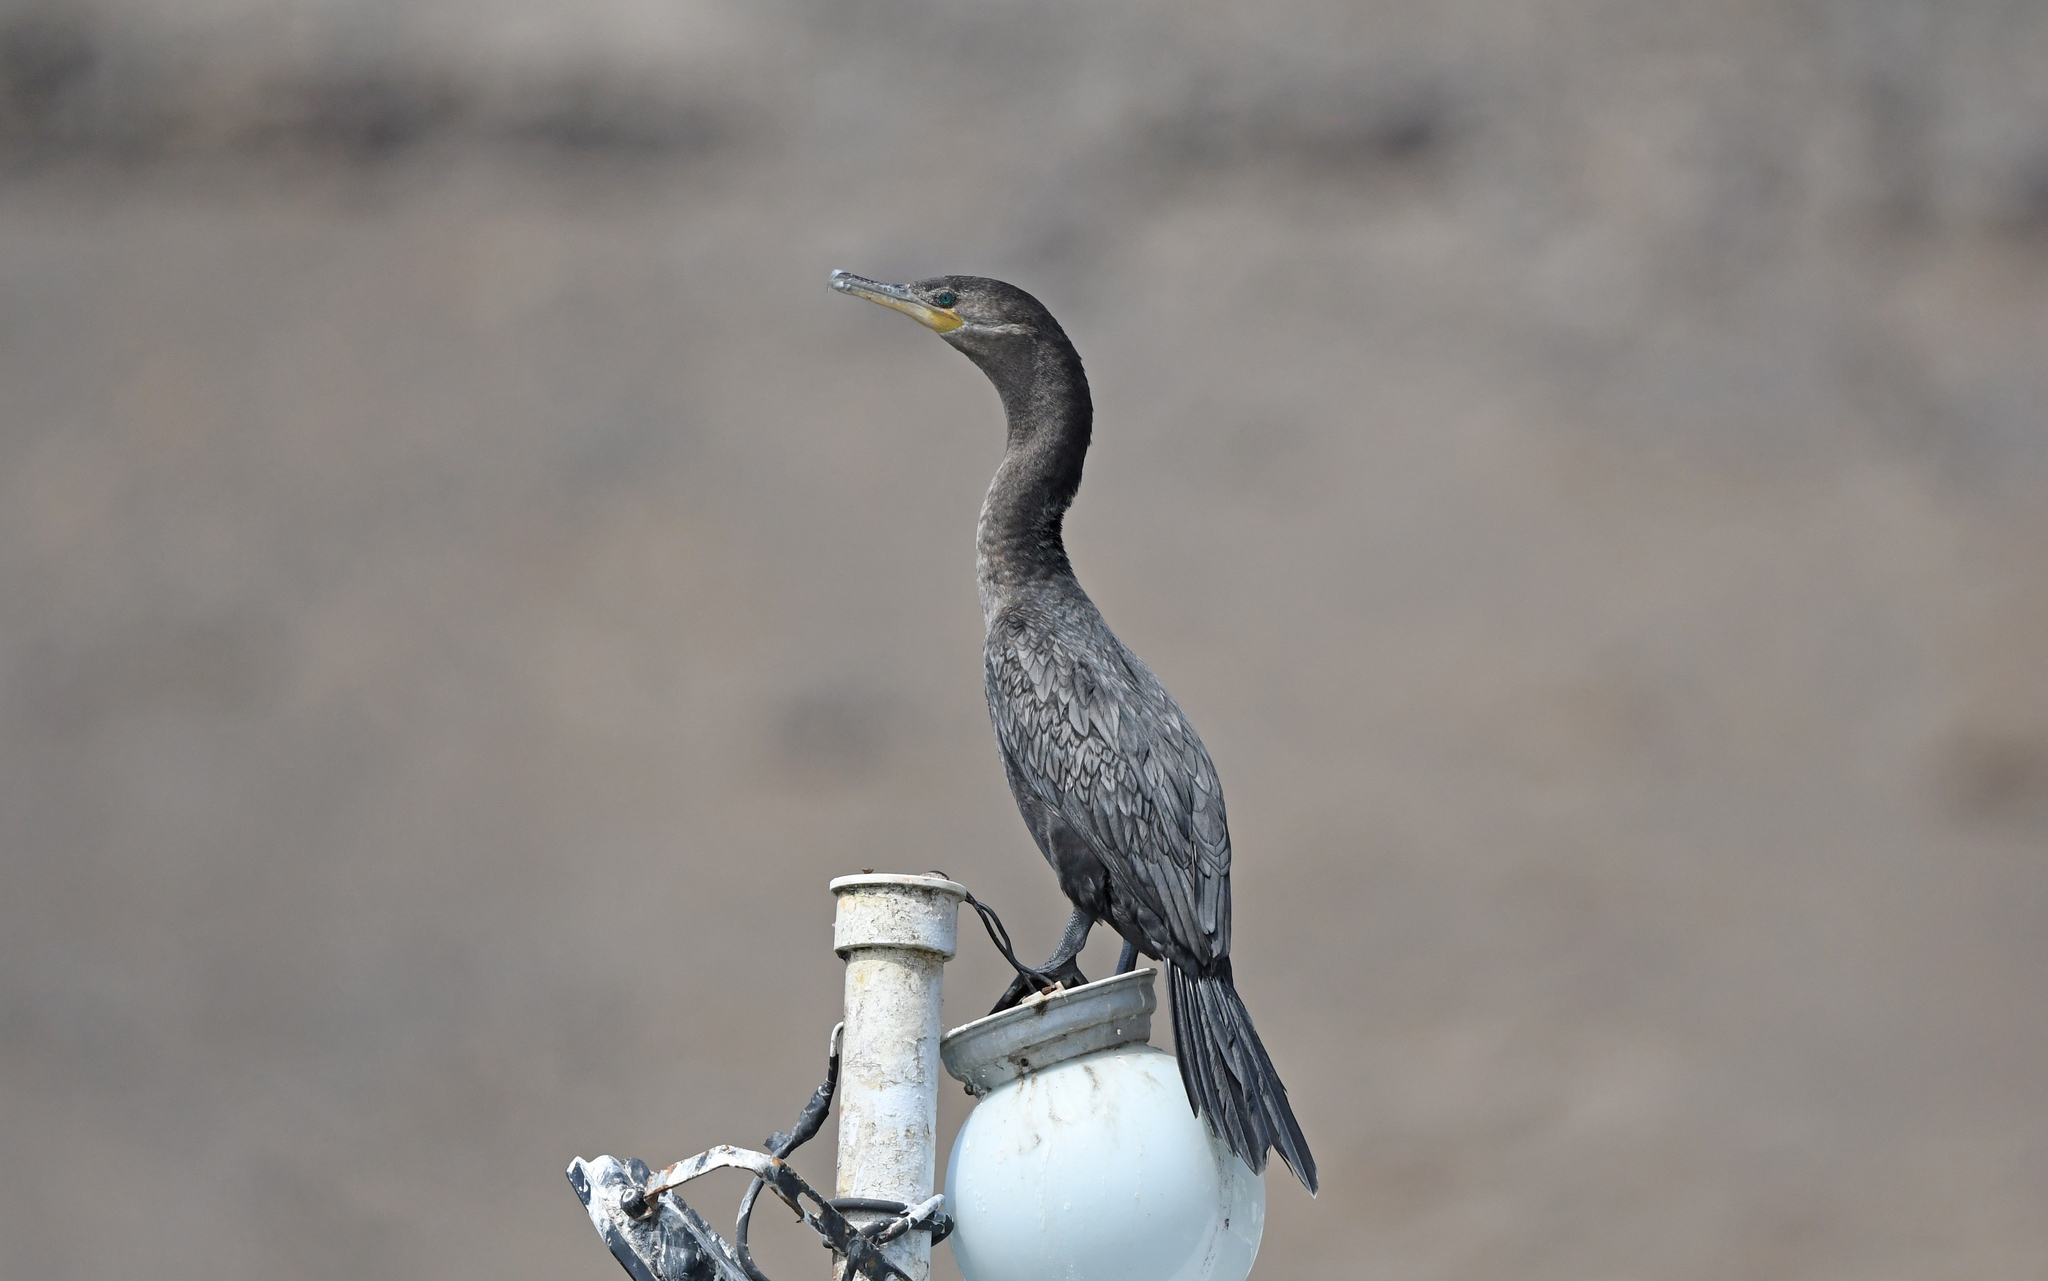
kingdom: Animalia
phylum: Chordata
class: Aves
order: Suliformes
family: Phalacrocoracidae
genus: Phalacrocorax
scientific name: Phalacrocorax brasilianus
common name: Neotropic cormorant
